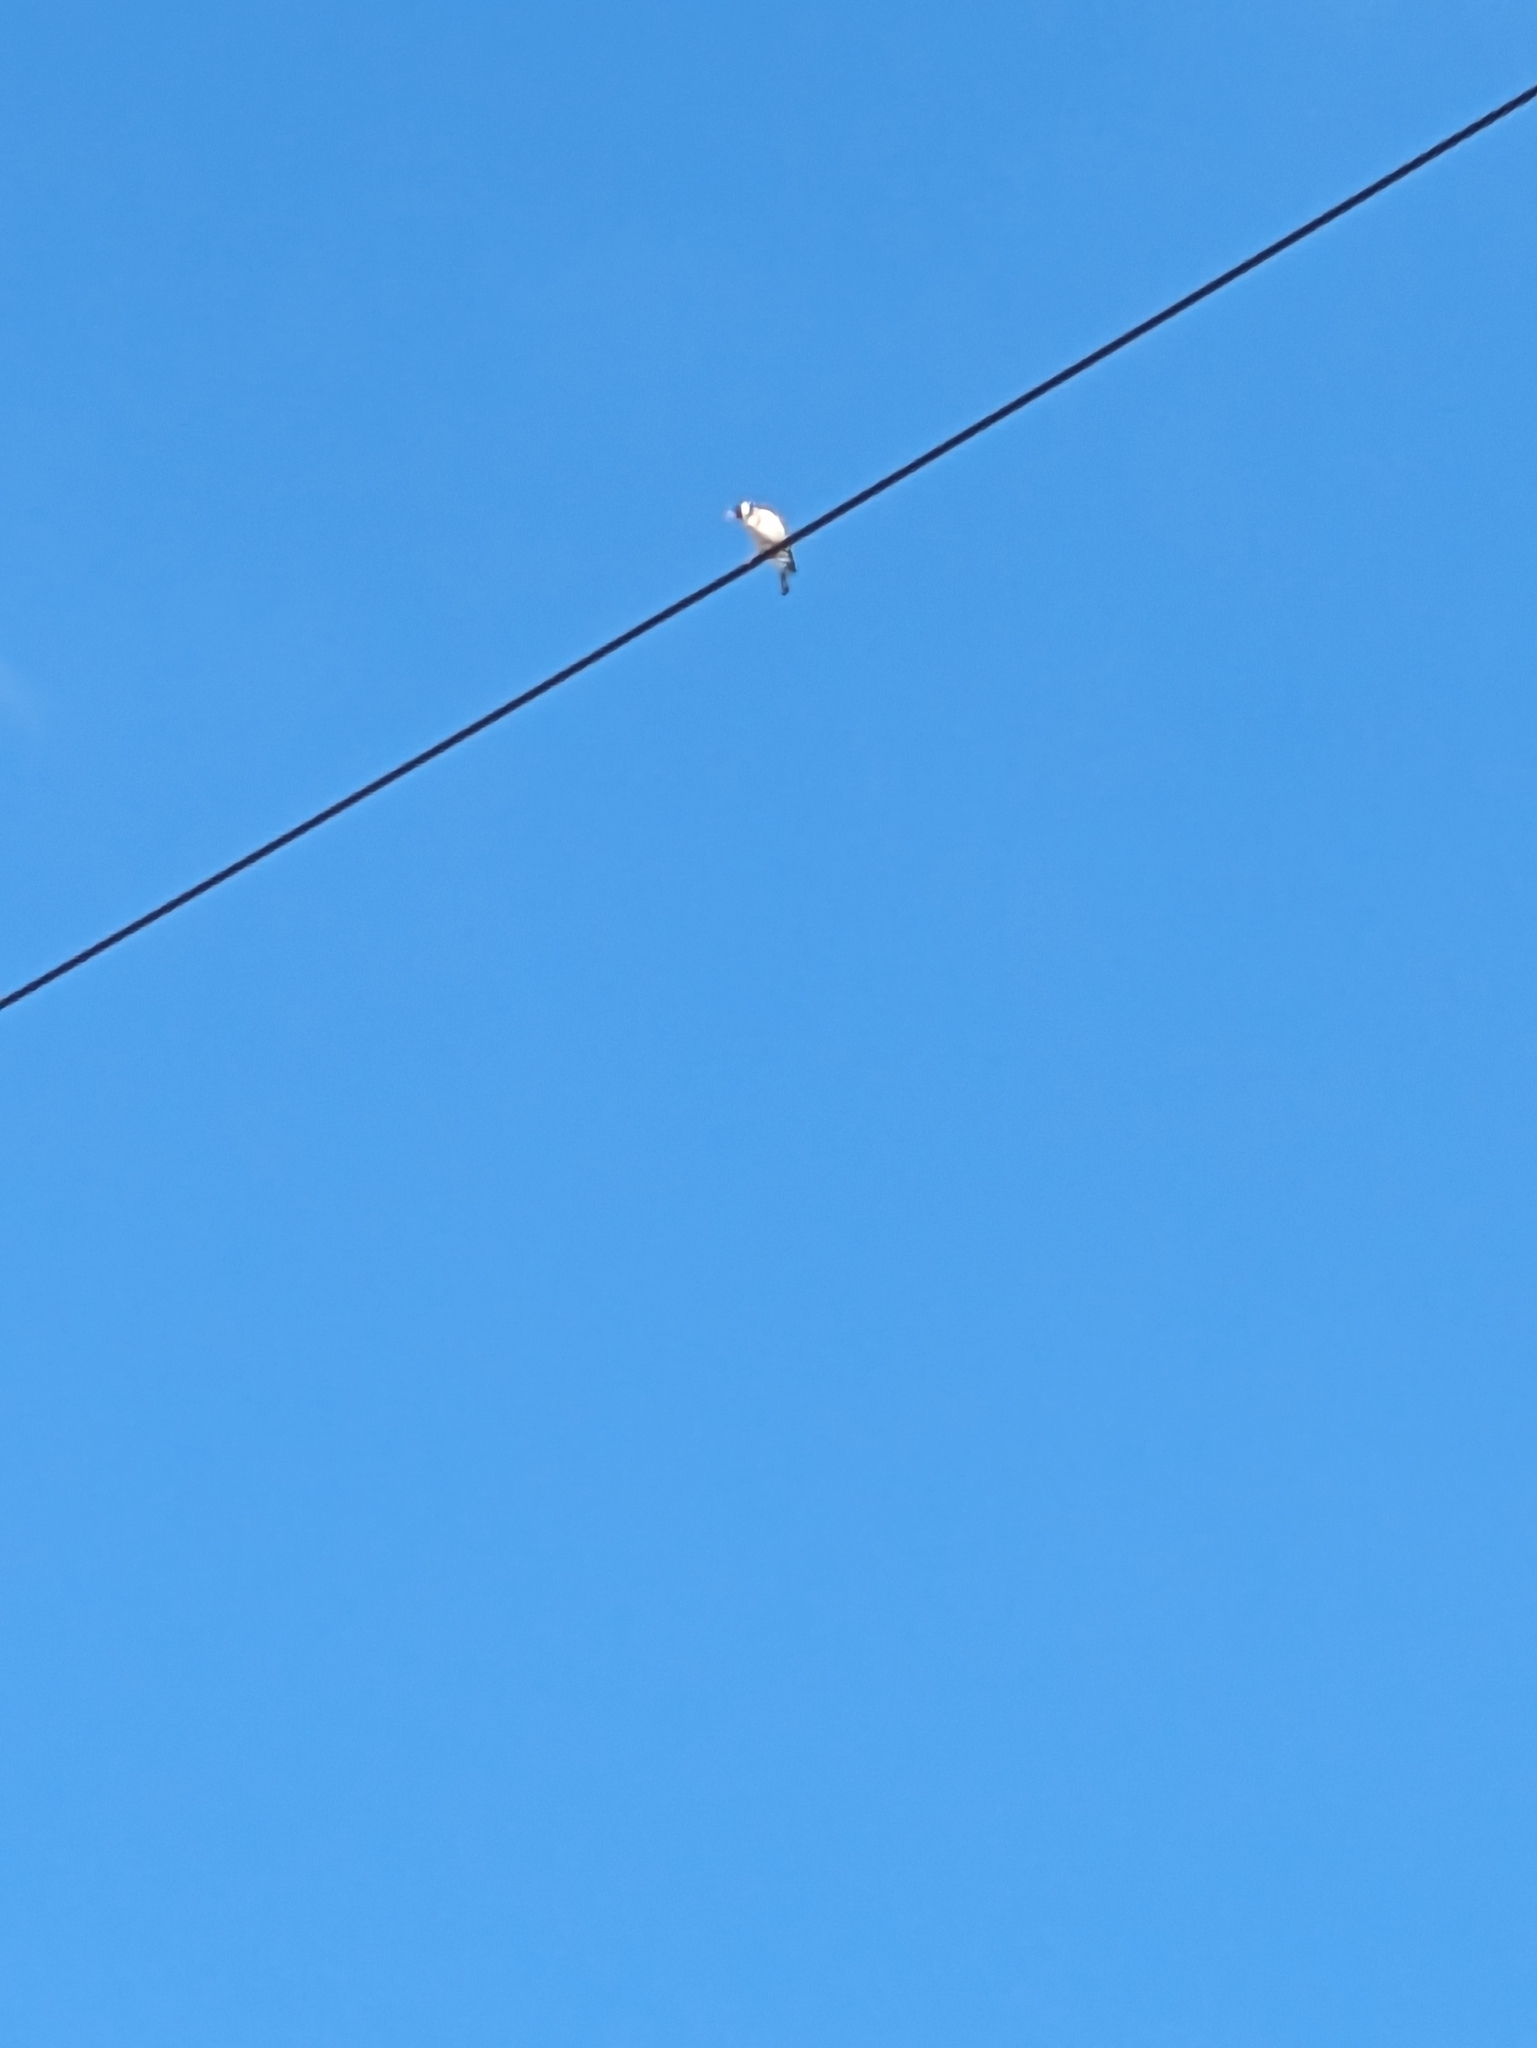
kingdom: Animalia
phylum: Chordata
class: Aves
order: Passeriformes
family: Fringillidae
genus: Carduelis
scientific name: Carduelis carduelis
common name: European goldfinch
